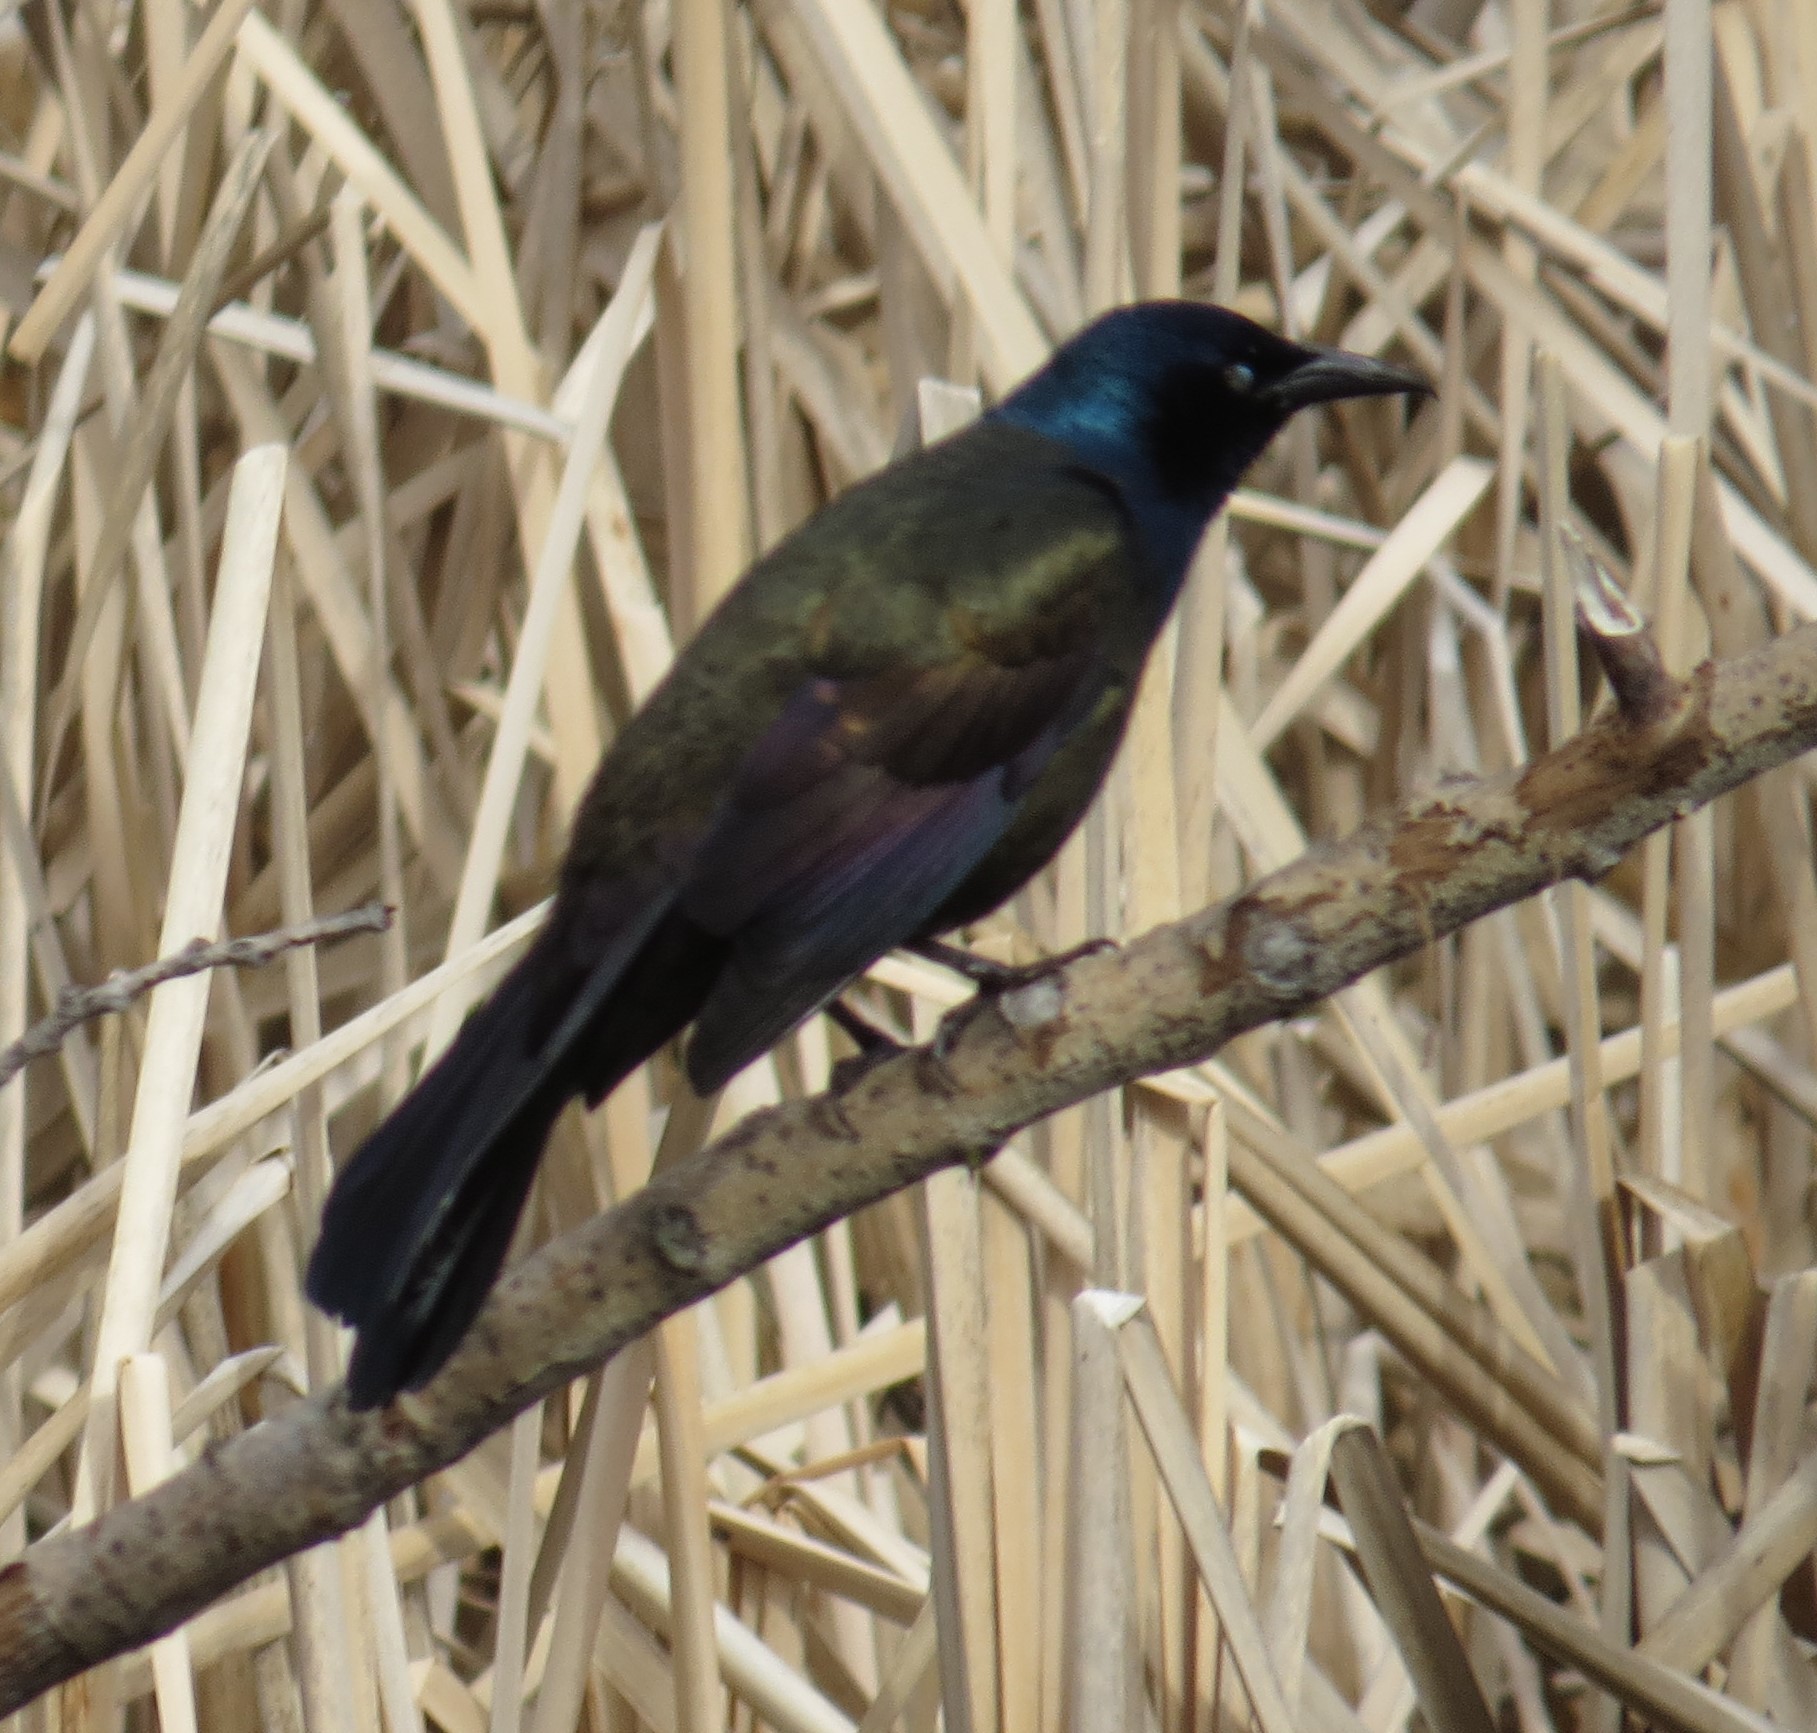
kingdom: Animalia
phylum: Chordata
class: Aves
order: Passeriformes
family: Icteridae
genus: Quiscalus
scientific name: Quiscalus quiscula
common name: Common grackle
